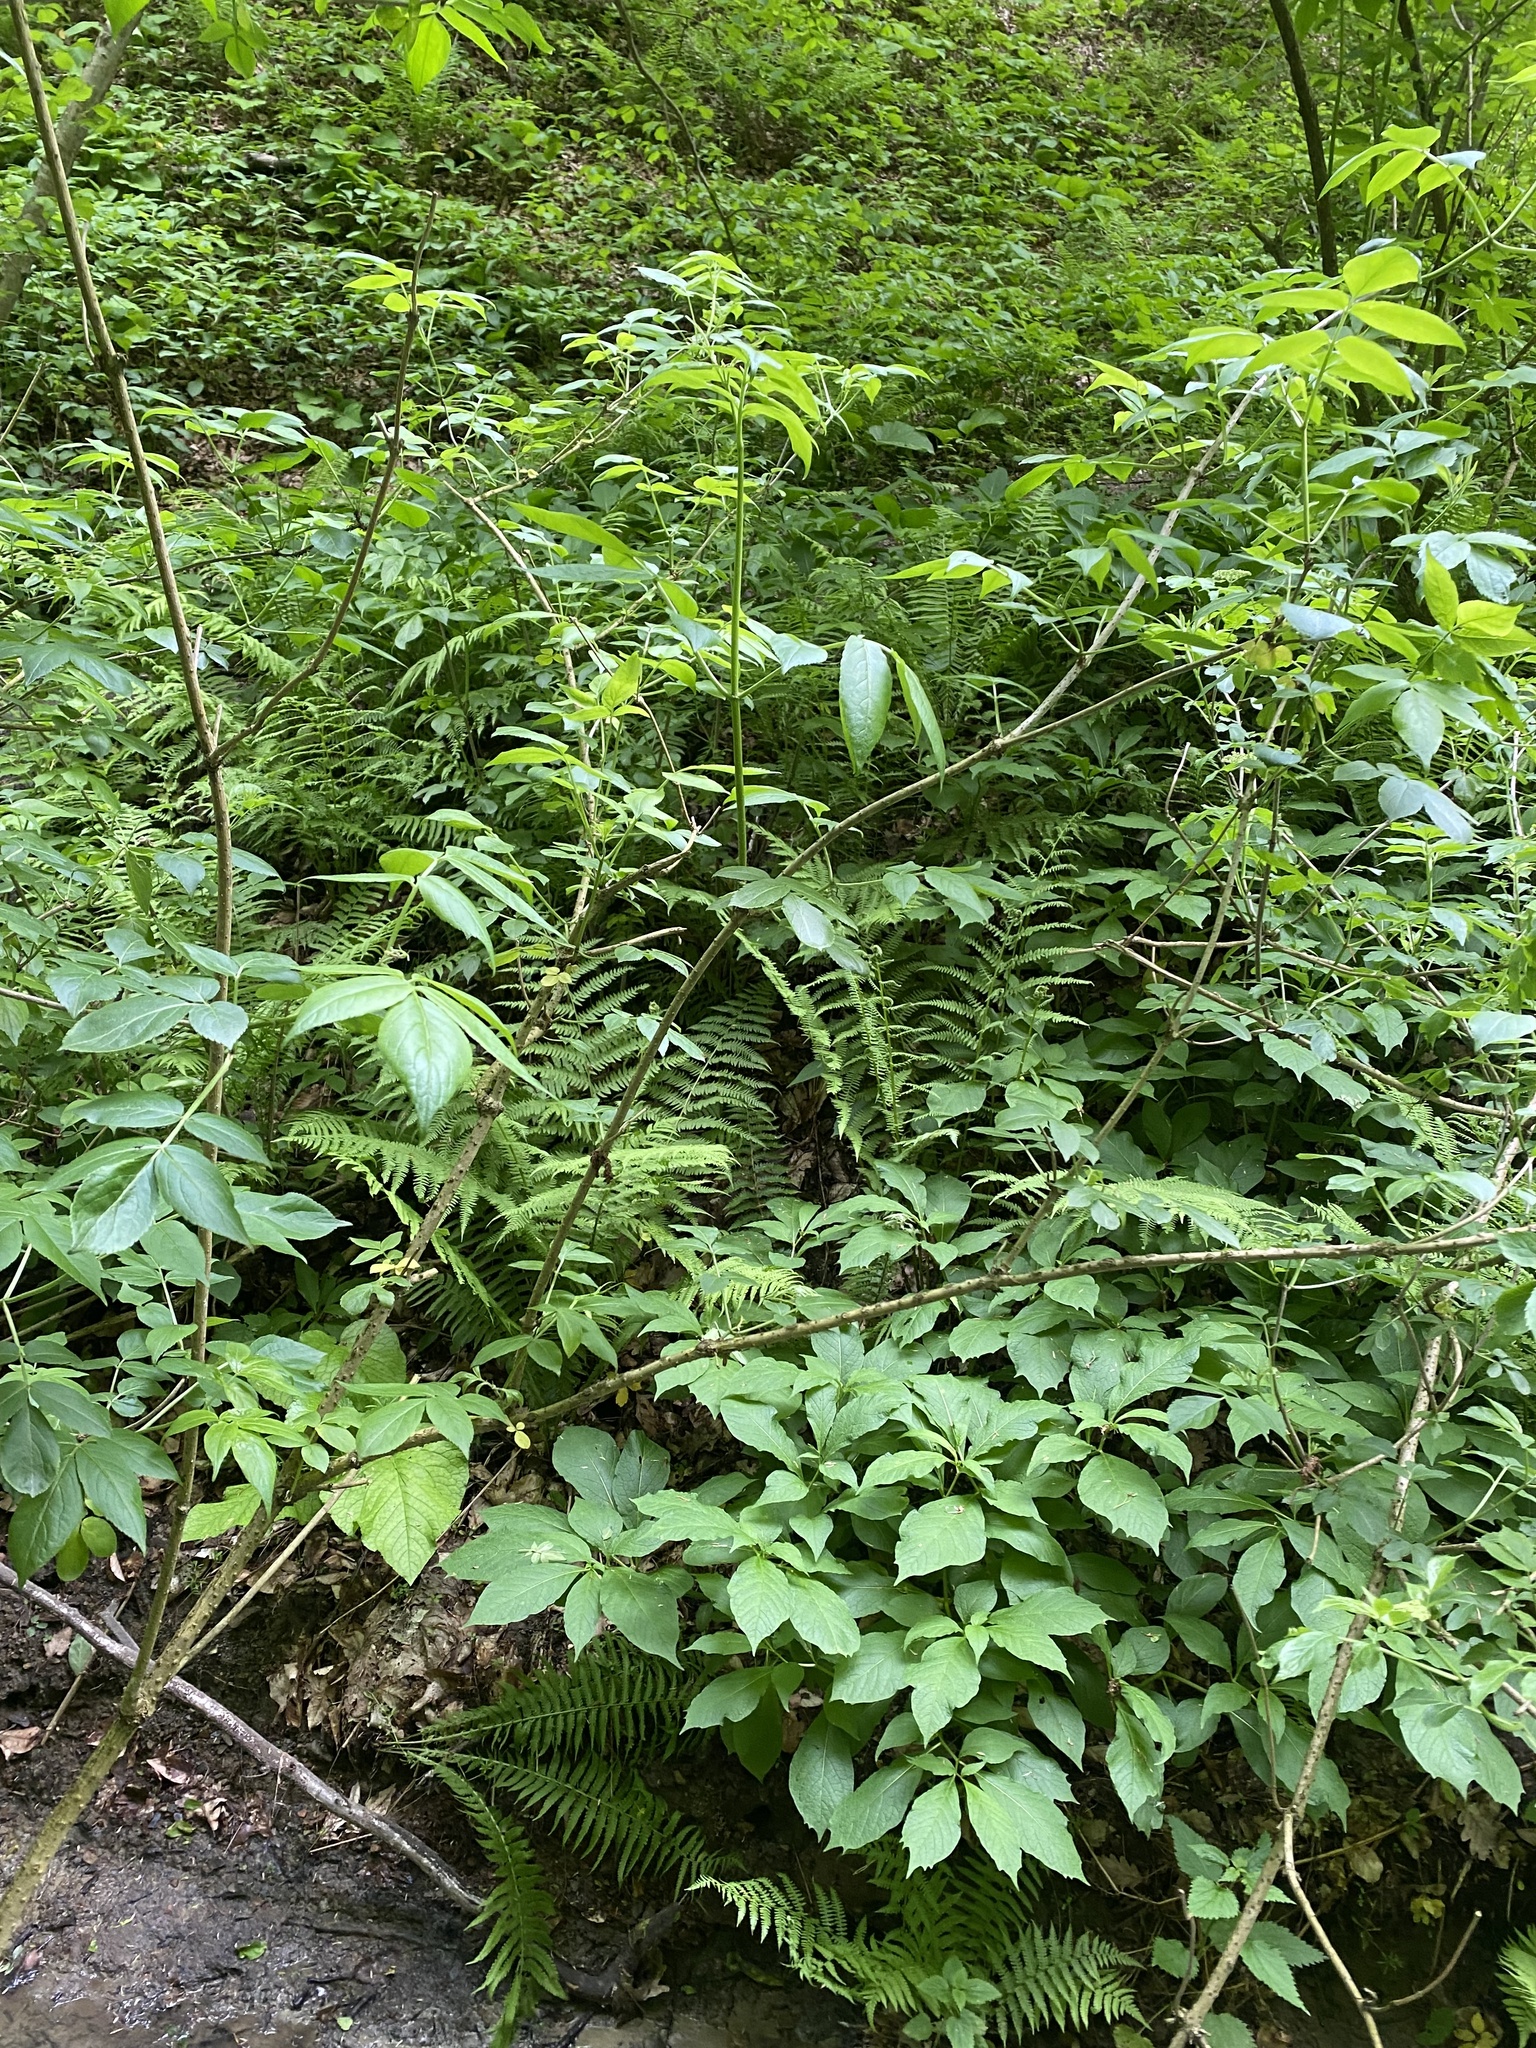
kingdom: Plantae
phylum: Tracheophyta
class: Magnoliopsida
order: Dipsacales
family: Viburnaceae
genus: Sambucus
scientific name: Sambucus nigra
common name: Elder
